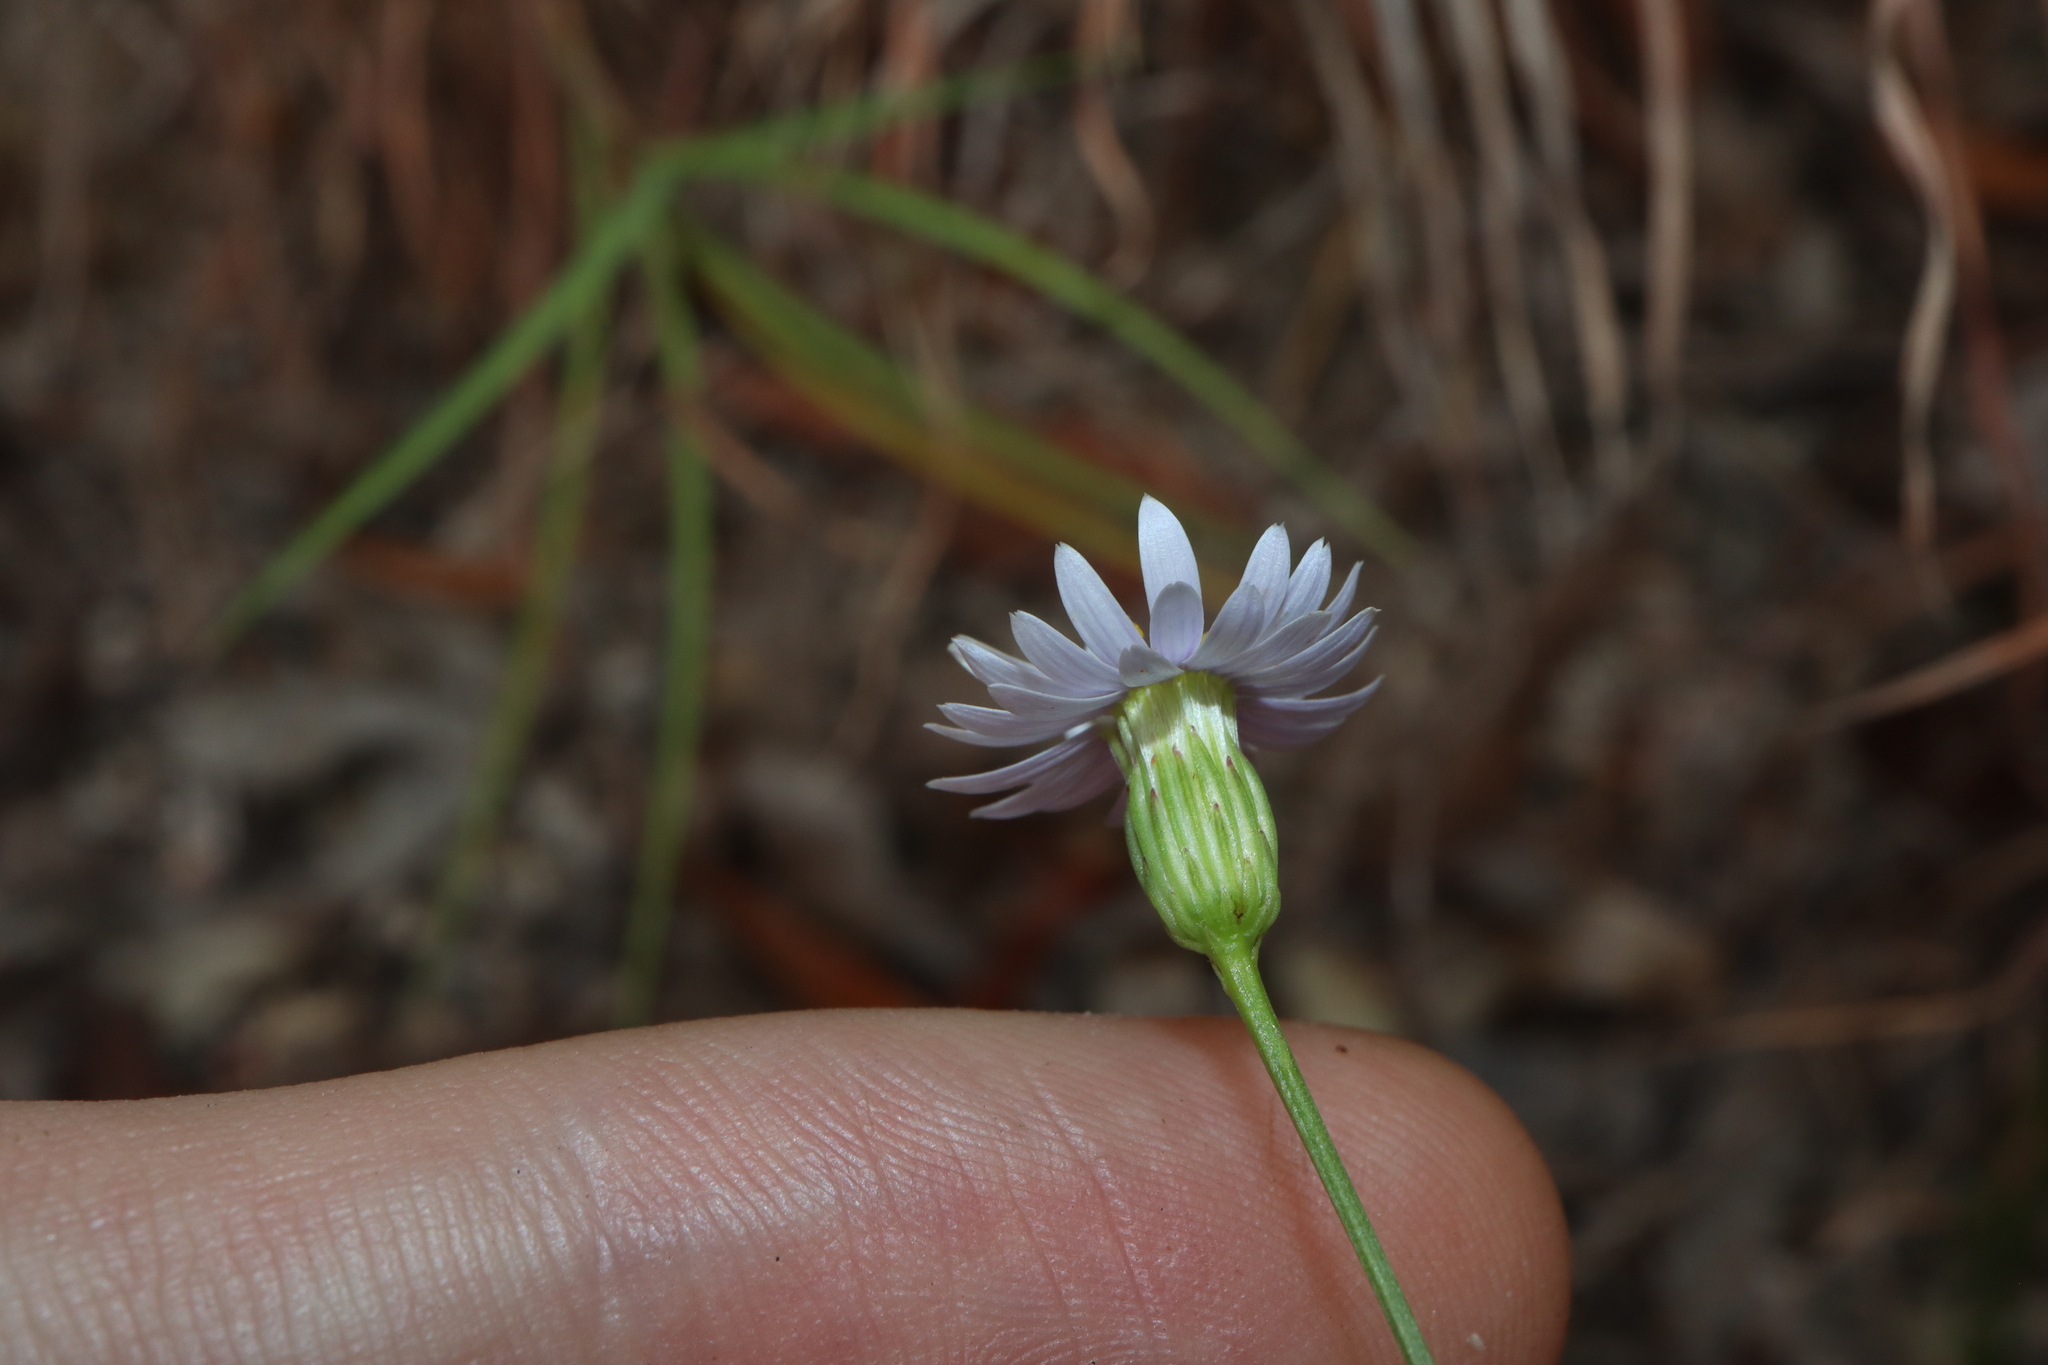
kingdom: Plantae
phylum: Tracheophyta
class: Magnoliopsida
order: Asterales
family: Asteraceae
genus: Peripleura
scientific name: Peripleura diffusa
